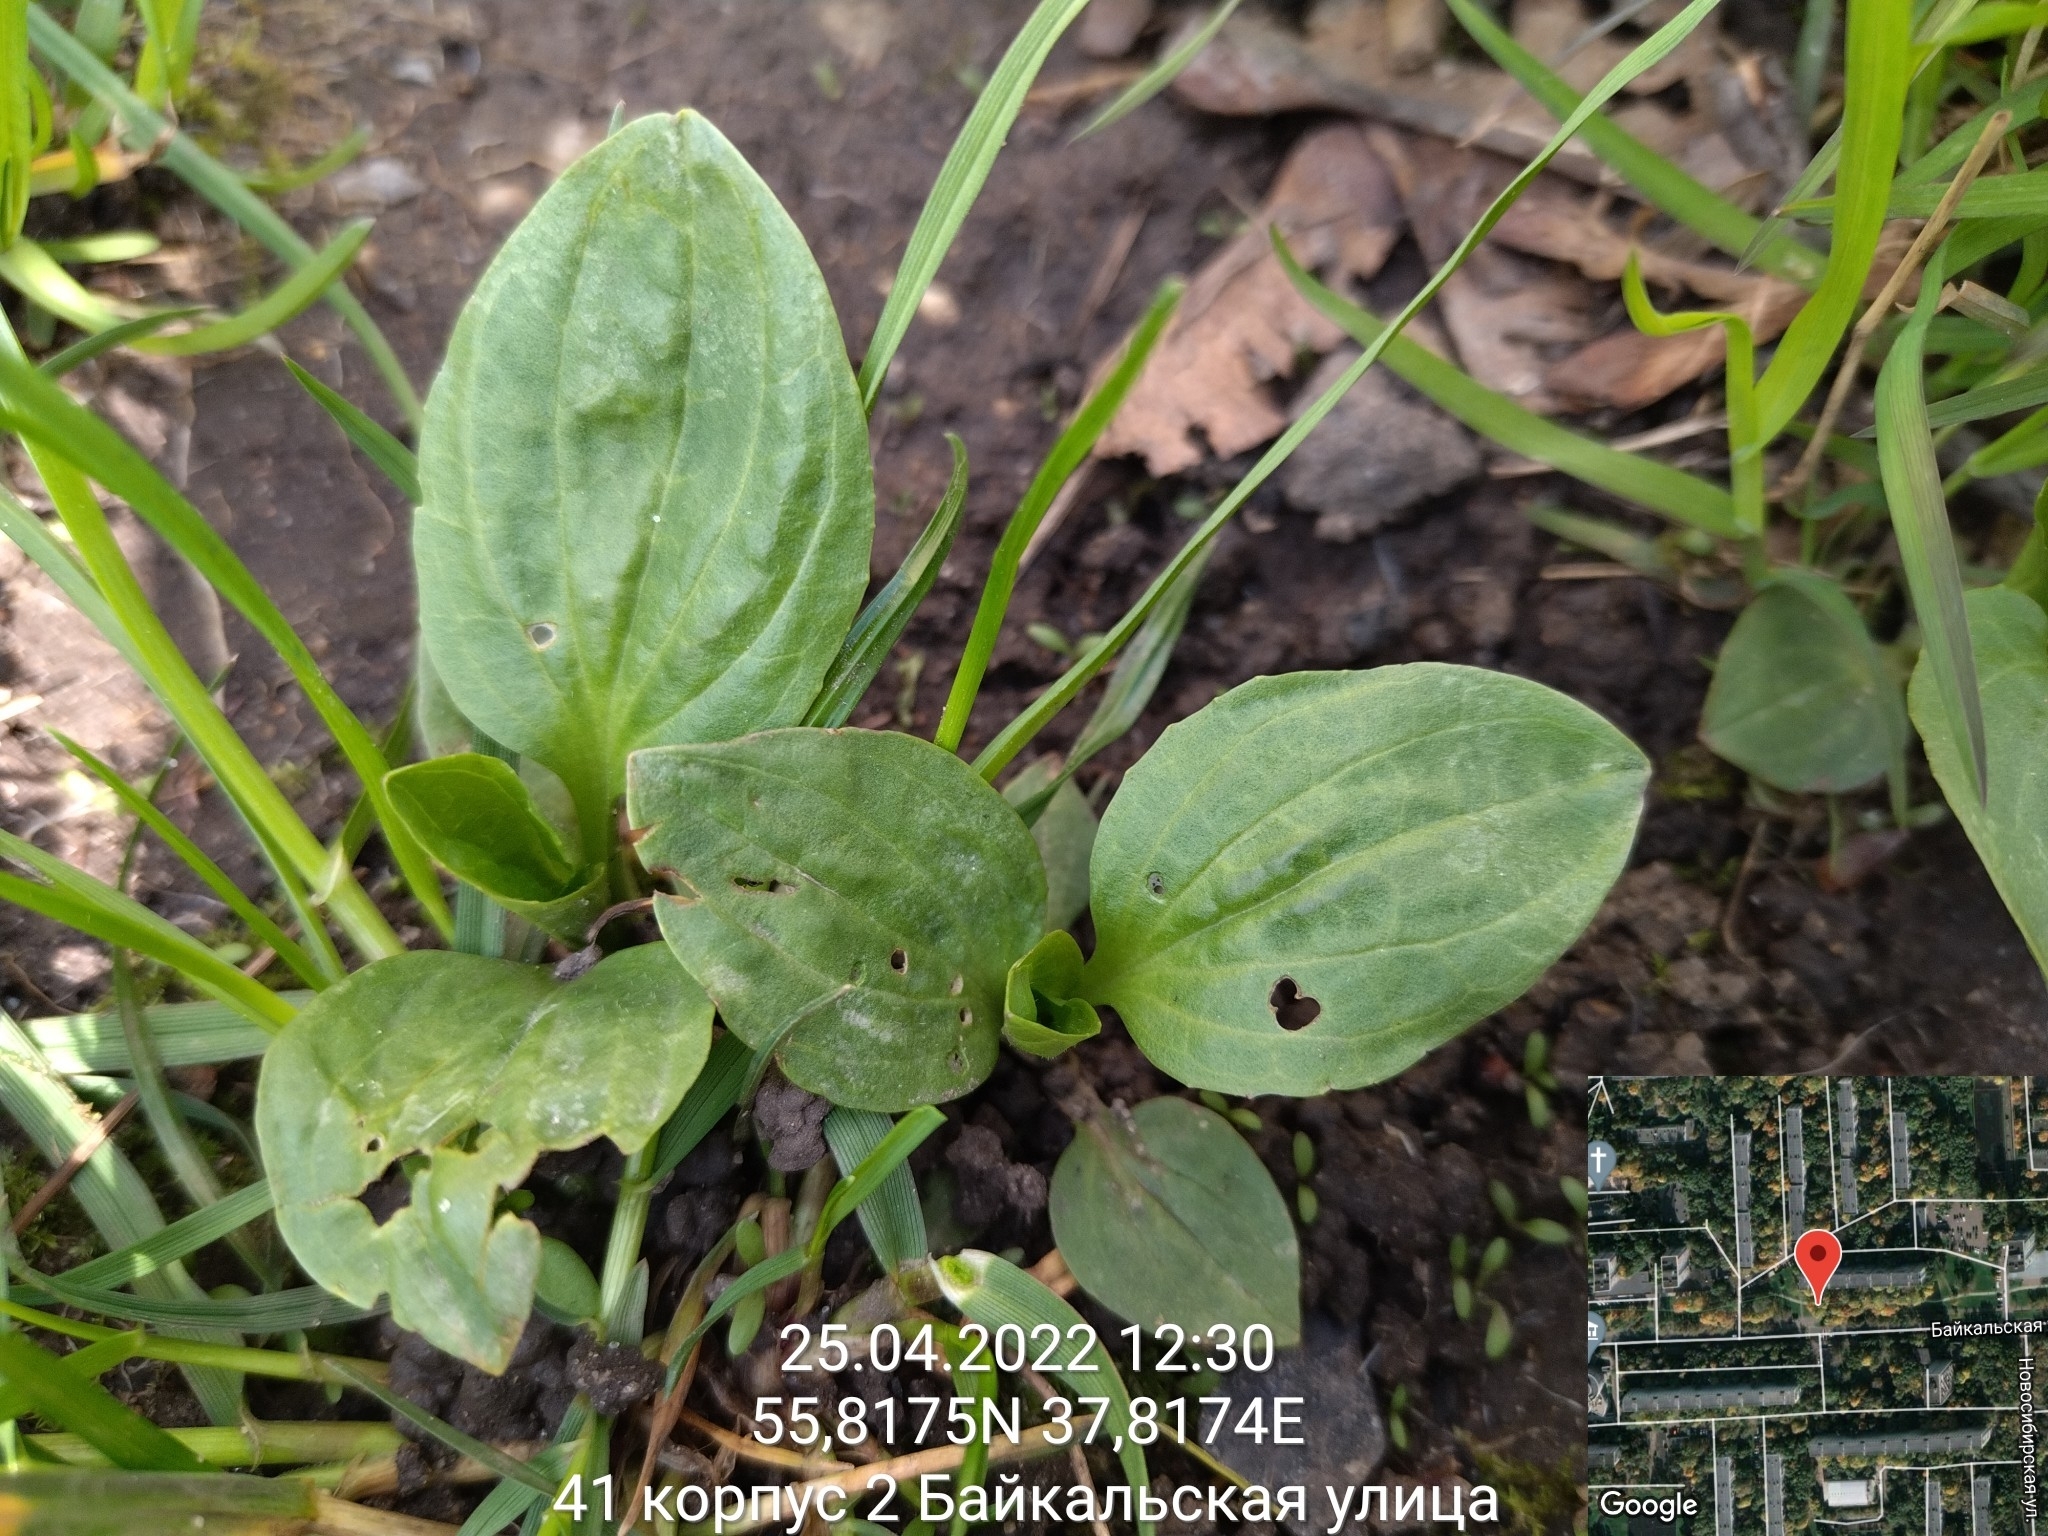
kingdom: Plantae
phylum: Tracheophyta
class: Magnoliopsida
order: Lamiales
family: Plantaginaceae
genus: Plantago
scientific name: Plantago major
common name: Common plantain
